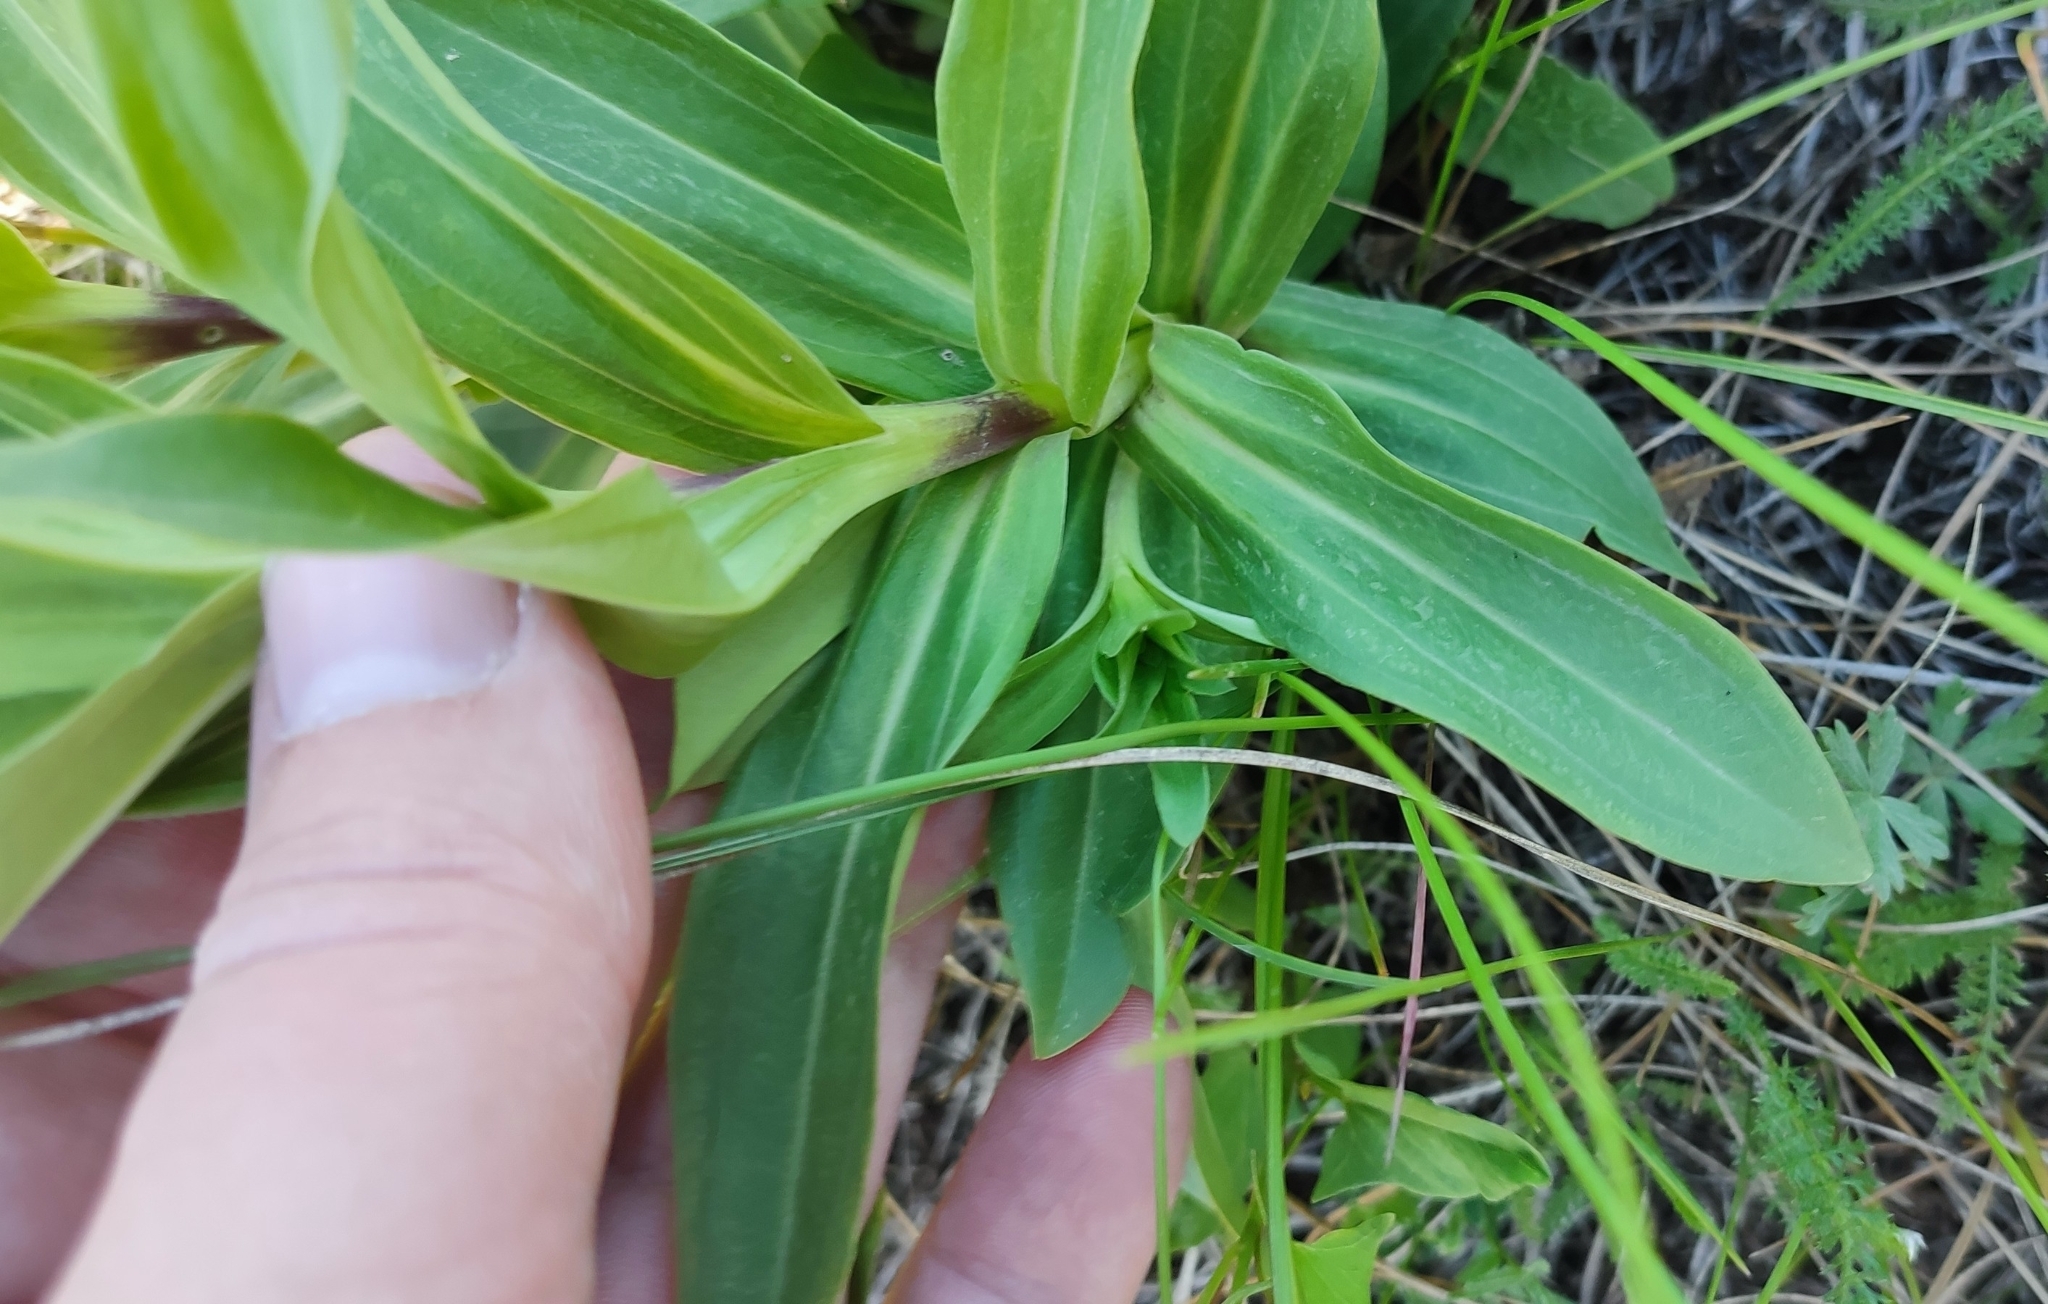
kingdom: Plantae
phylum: Tracheophyta
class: Magnoliopsida
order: Gentianales
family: Gentianaceae
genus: Gentiana
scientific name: Gentiana cruciata
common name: Cross gentian
